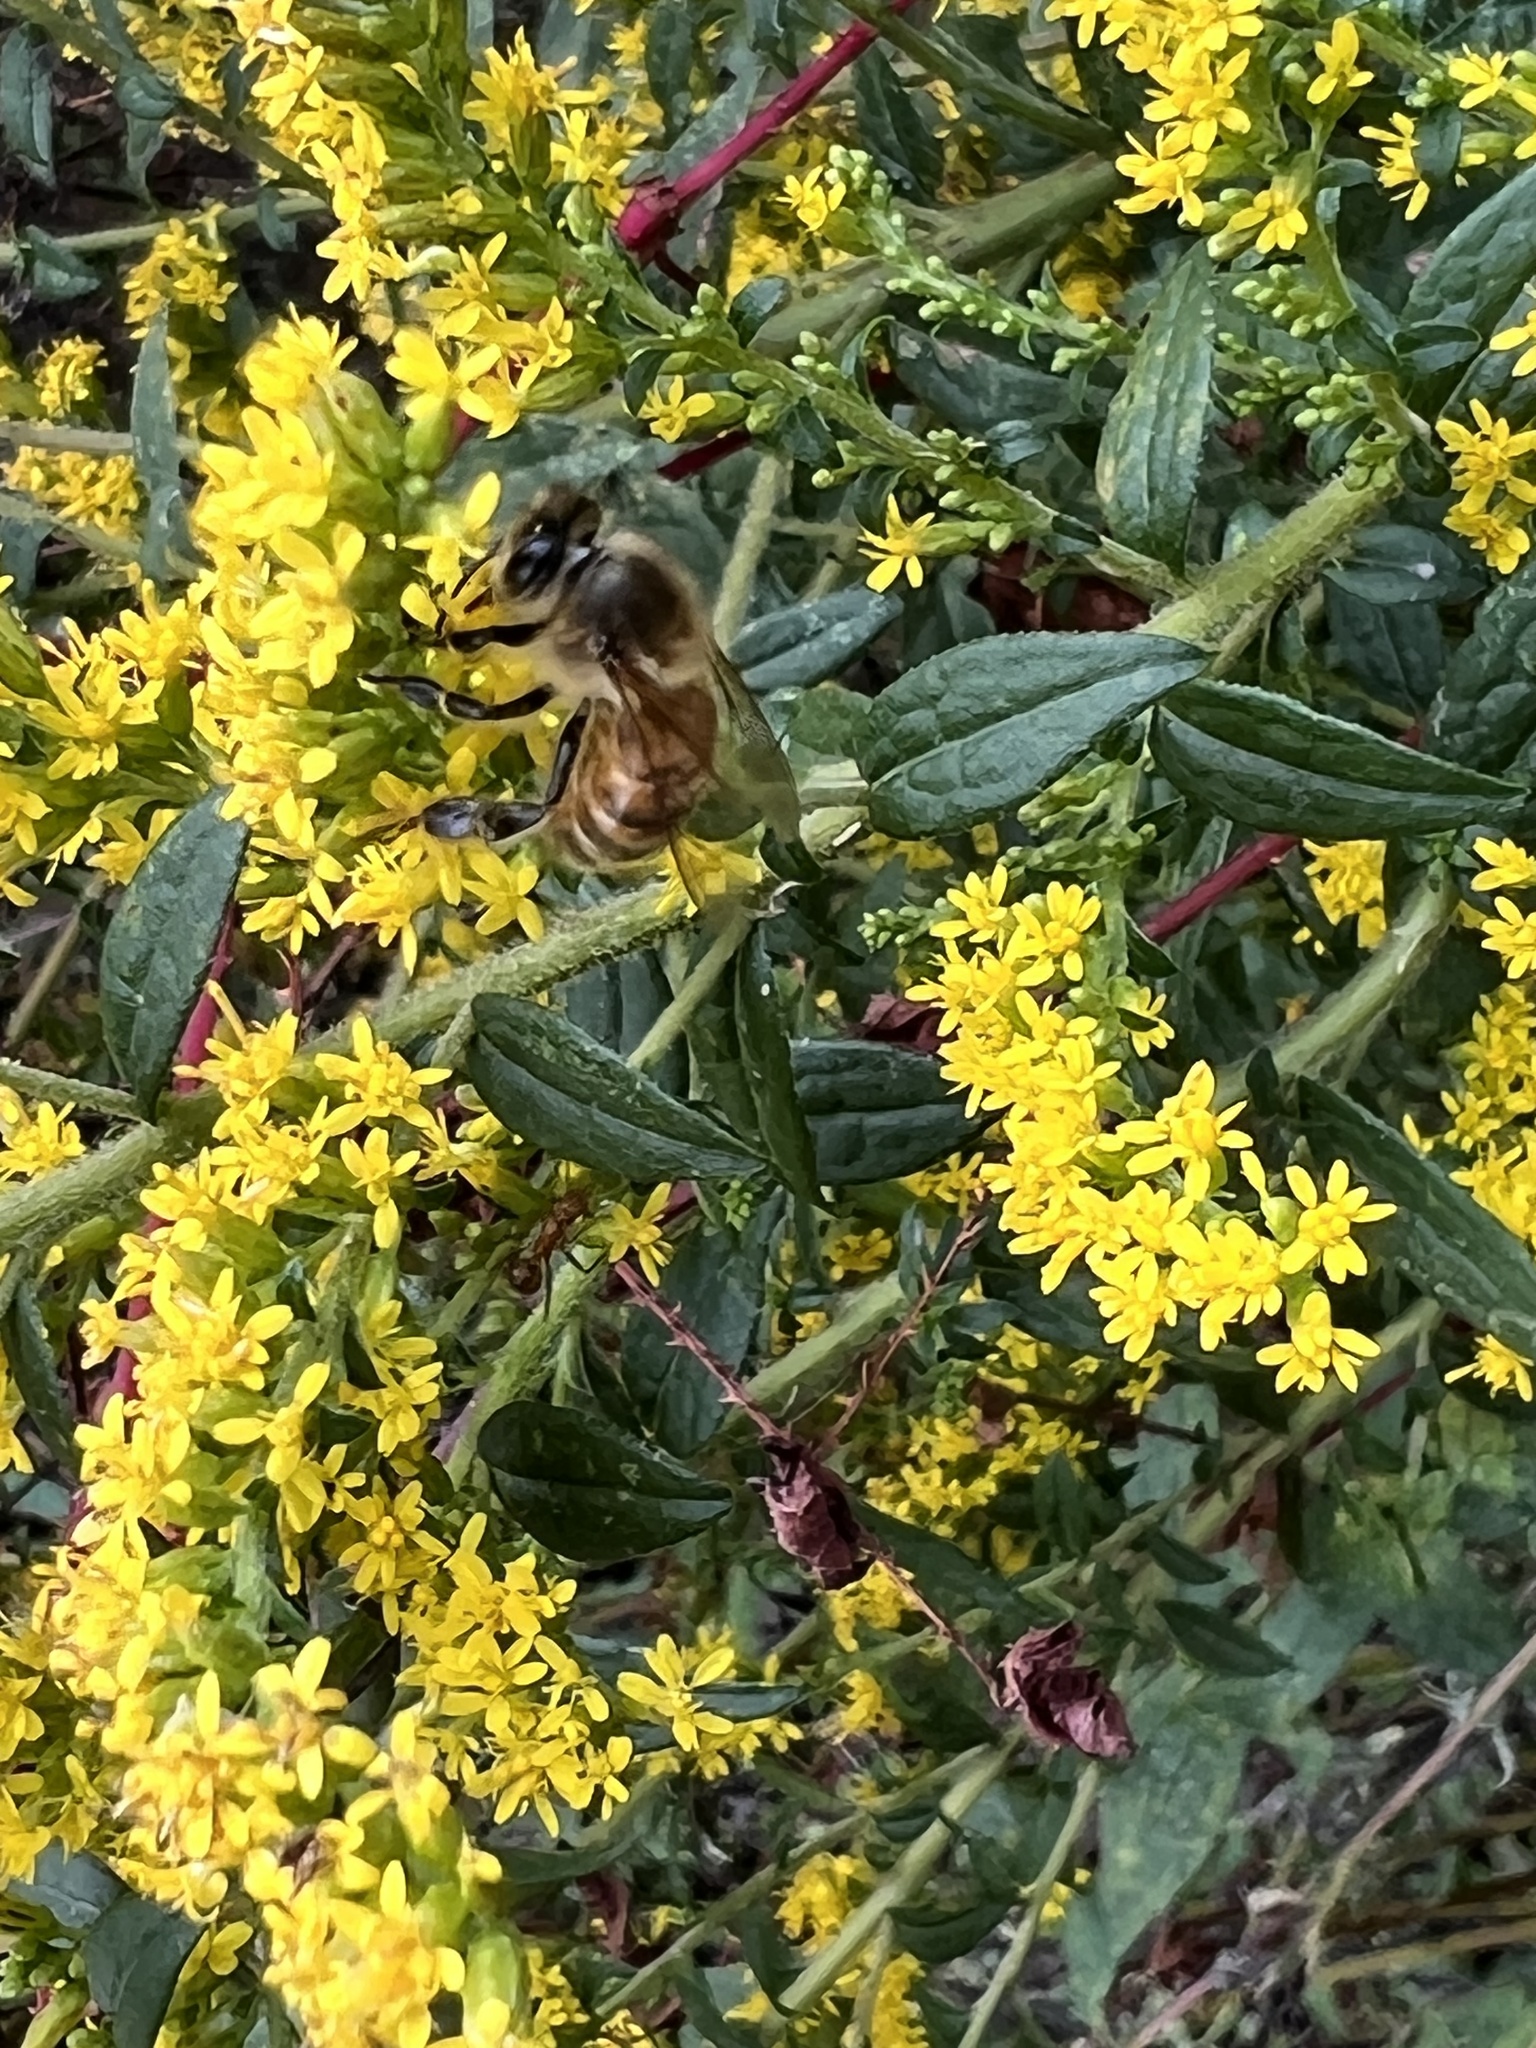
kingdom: Animalia
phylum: Arthropoda
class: Insecta
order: Hymenoptera
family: Apidae
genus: Apis
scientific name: Apis mellifera
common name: Honey bee
